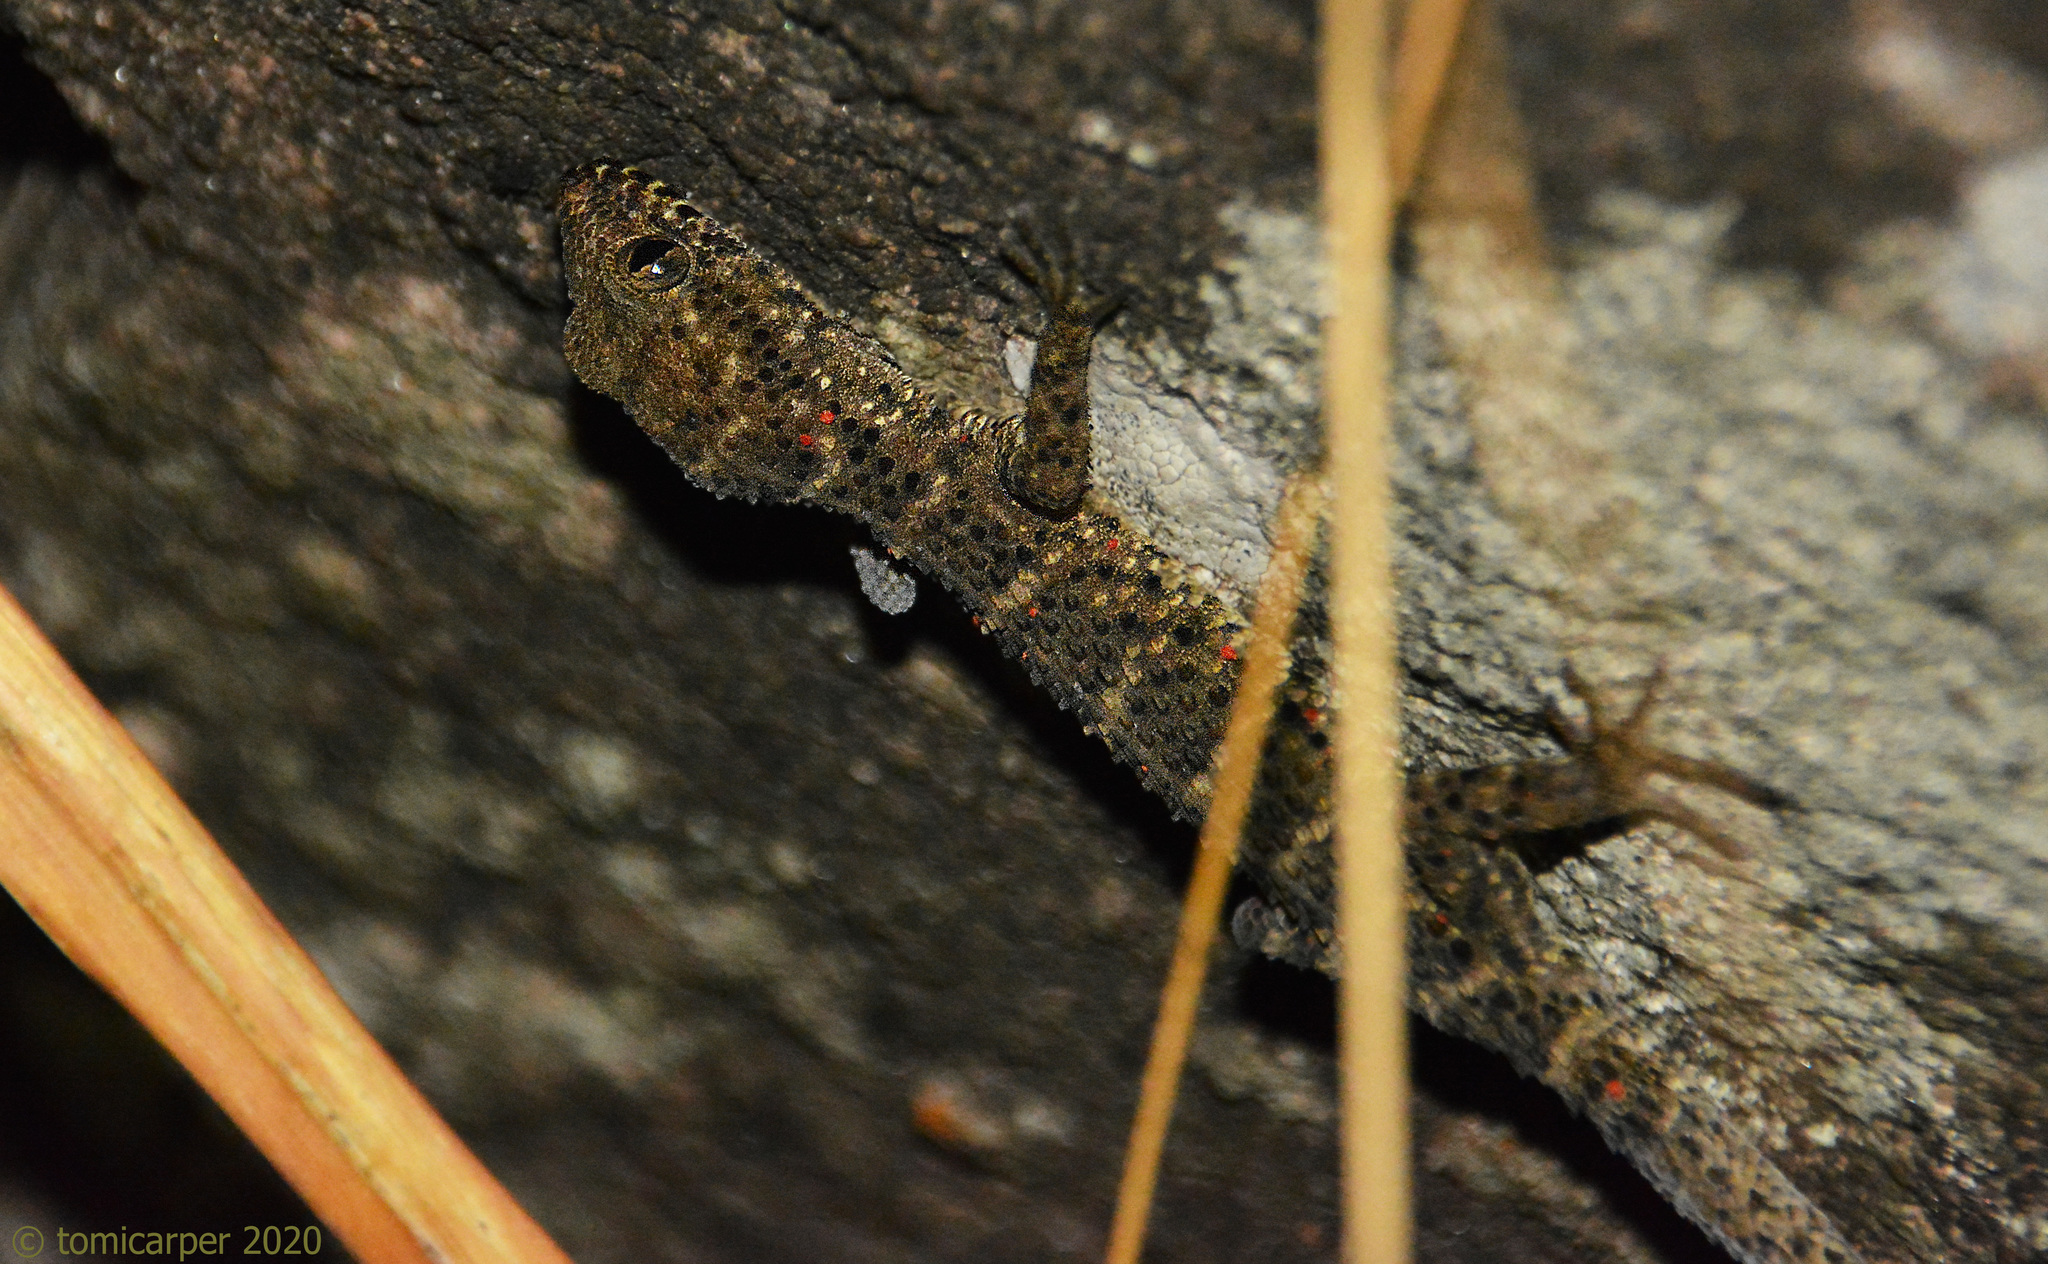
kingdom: Animalia
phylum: Chordata
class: Squamata
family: Phyllodactylidae
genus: Homonota
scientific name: Homonota horrida
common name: South american marked gecko
